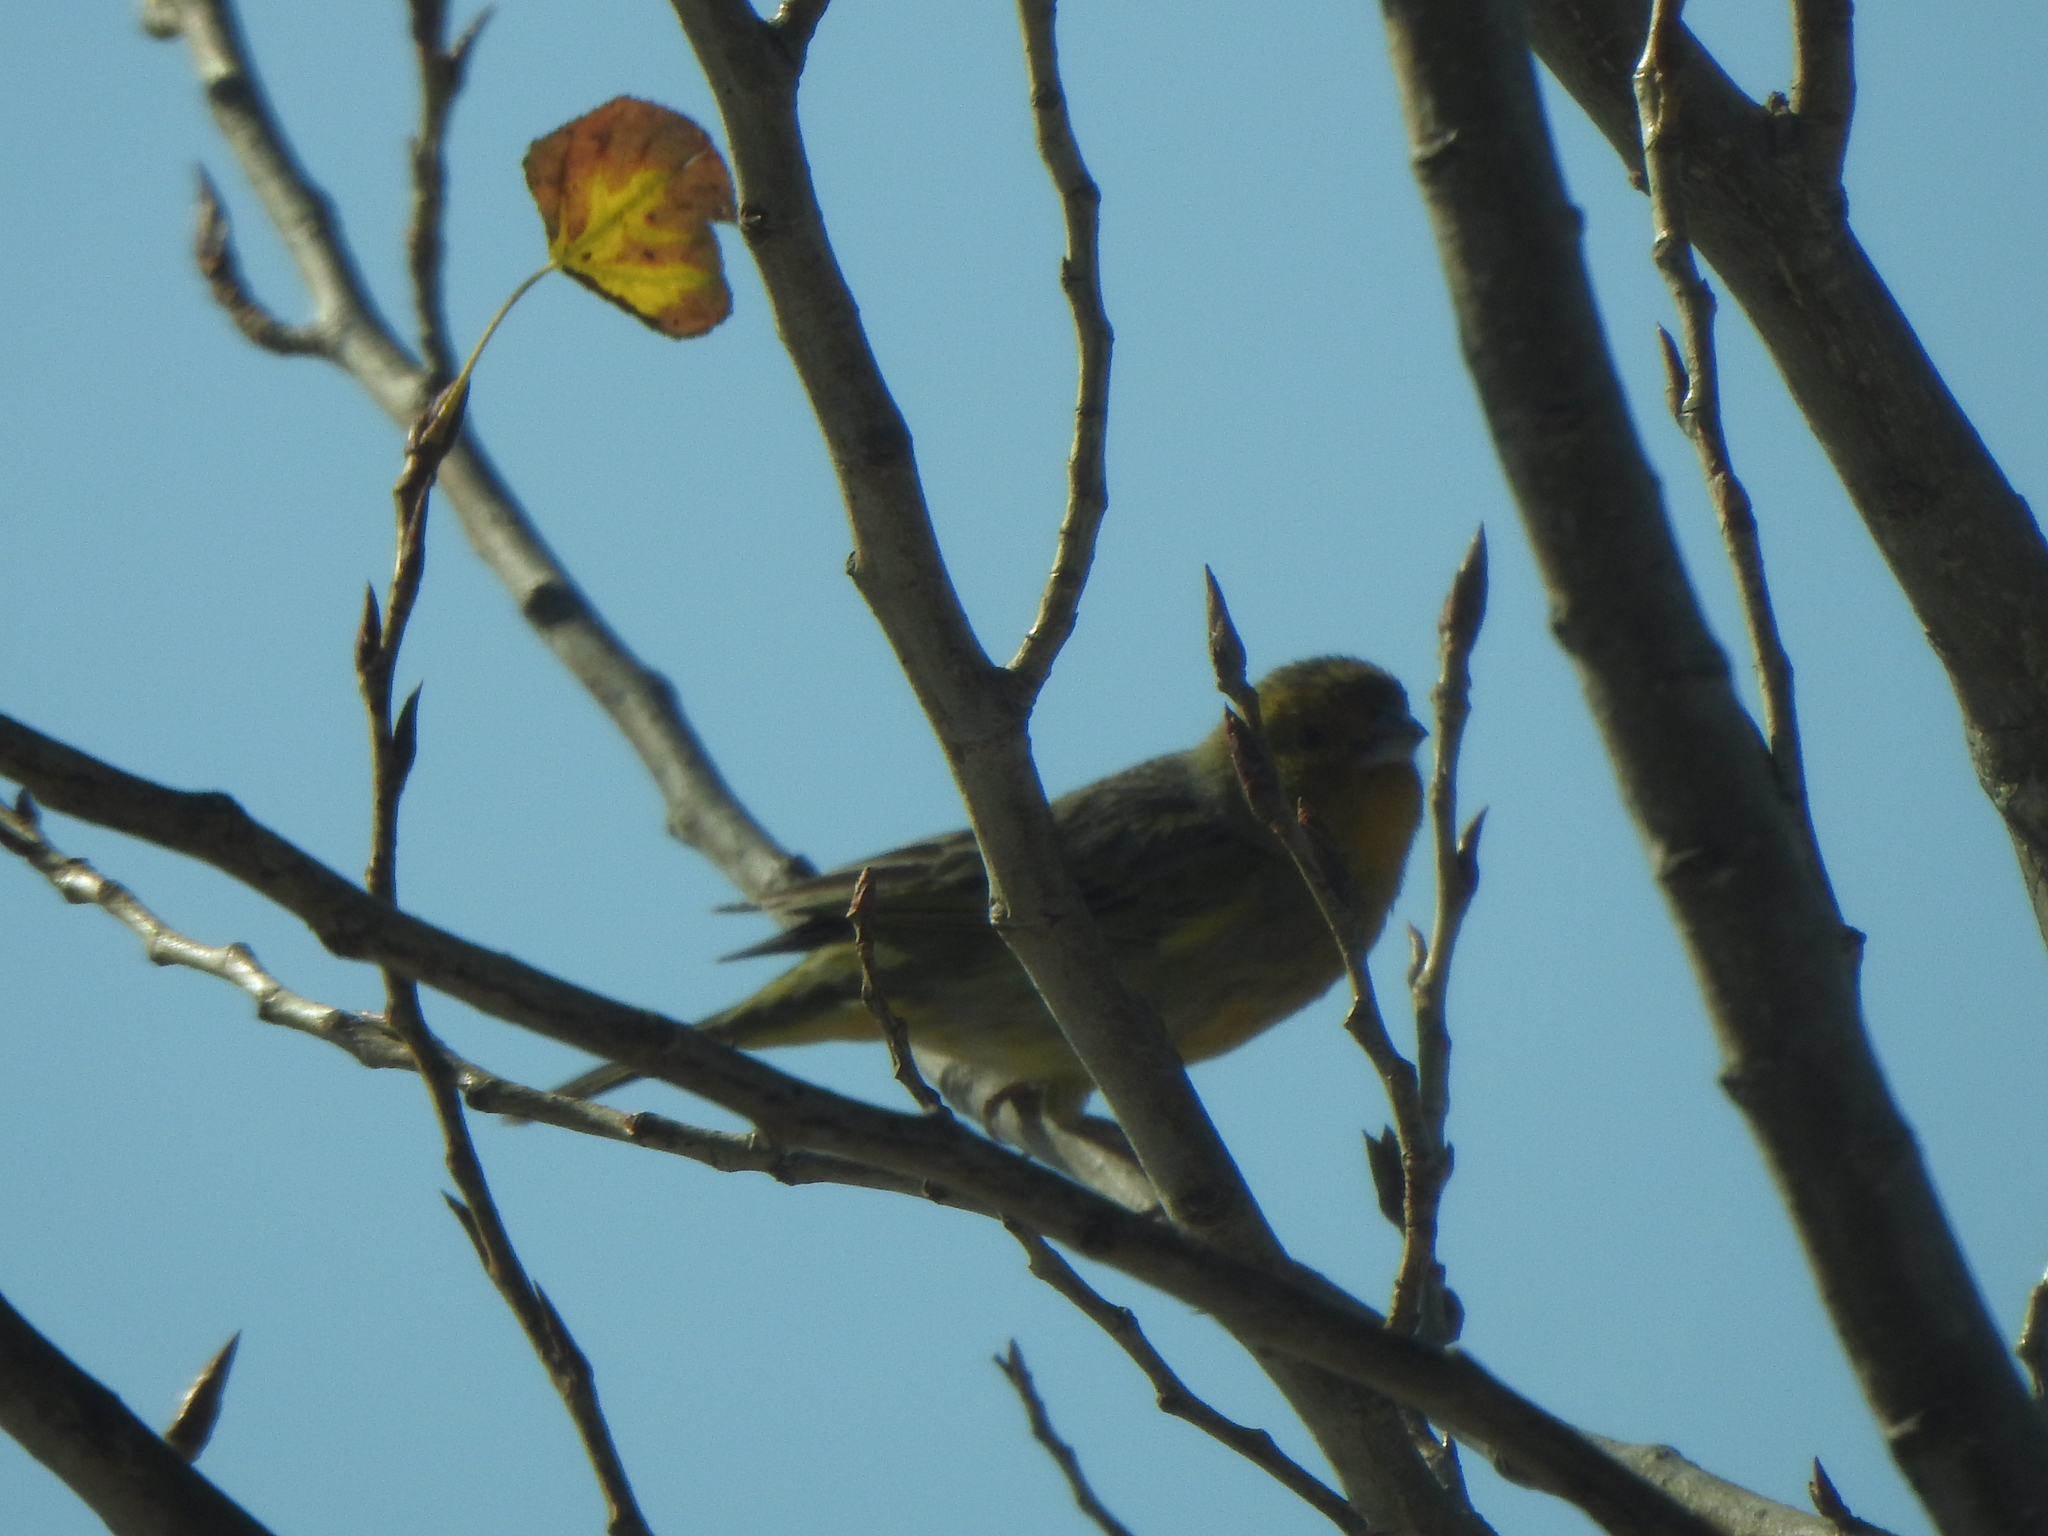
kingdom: Animalia
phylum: Chordata
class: Aves
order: Passeriformes
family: Thraupidae
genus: Sicalis
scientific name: Sicalis luteola
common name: Grassland yellow-finch
